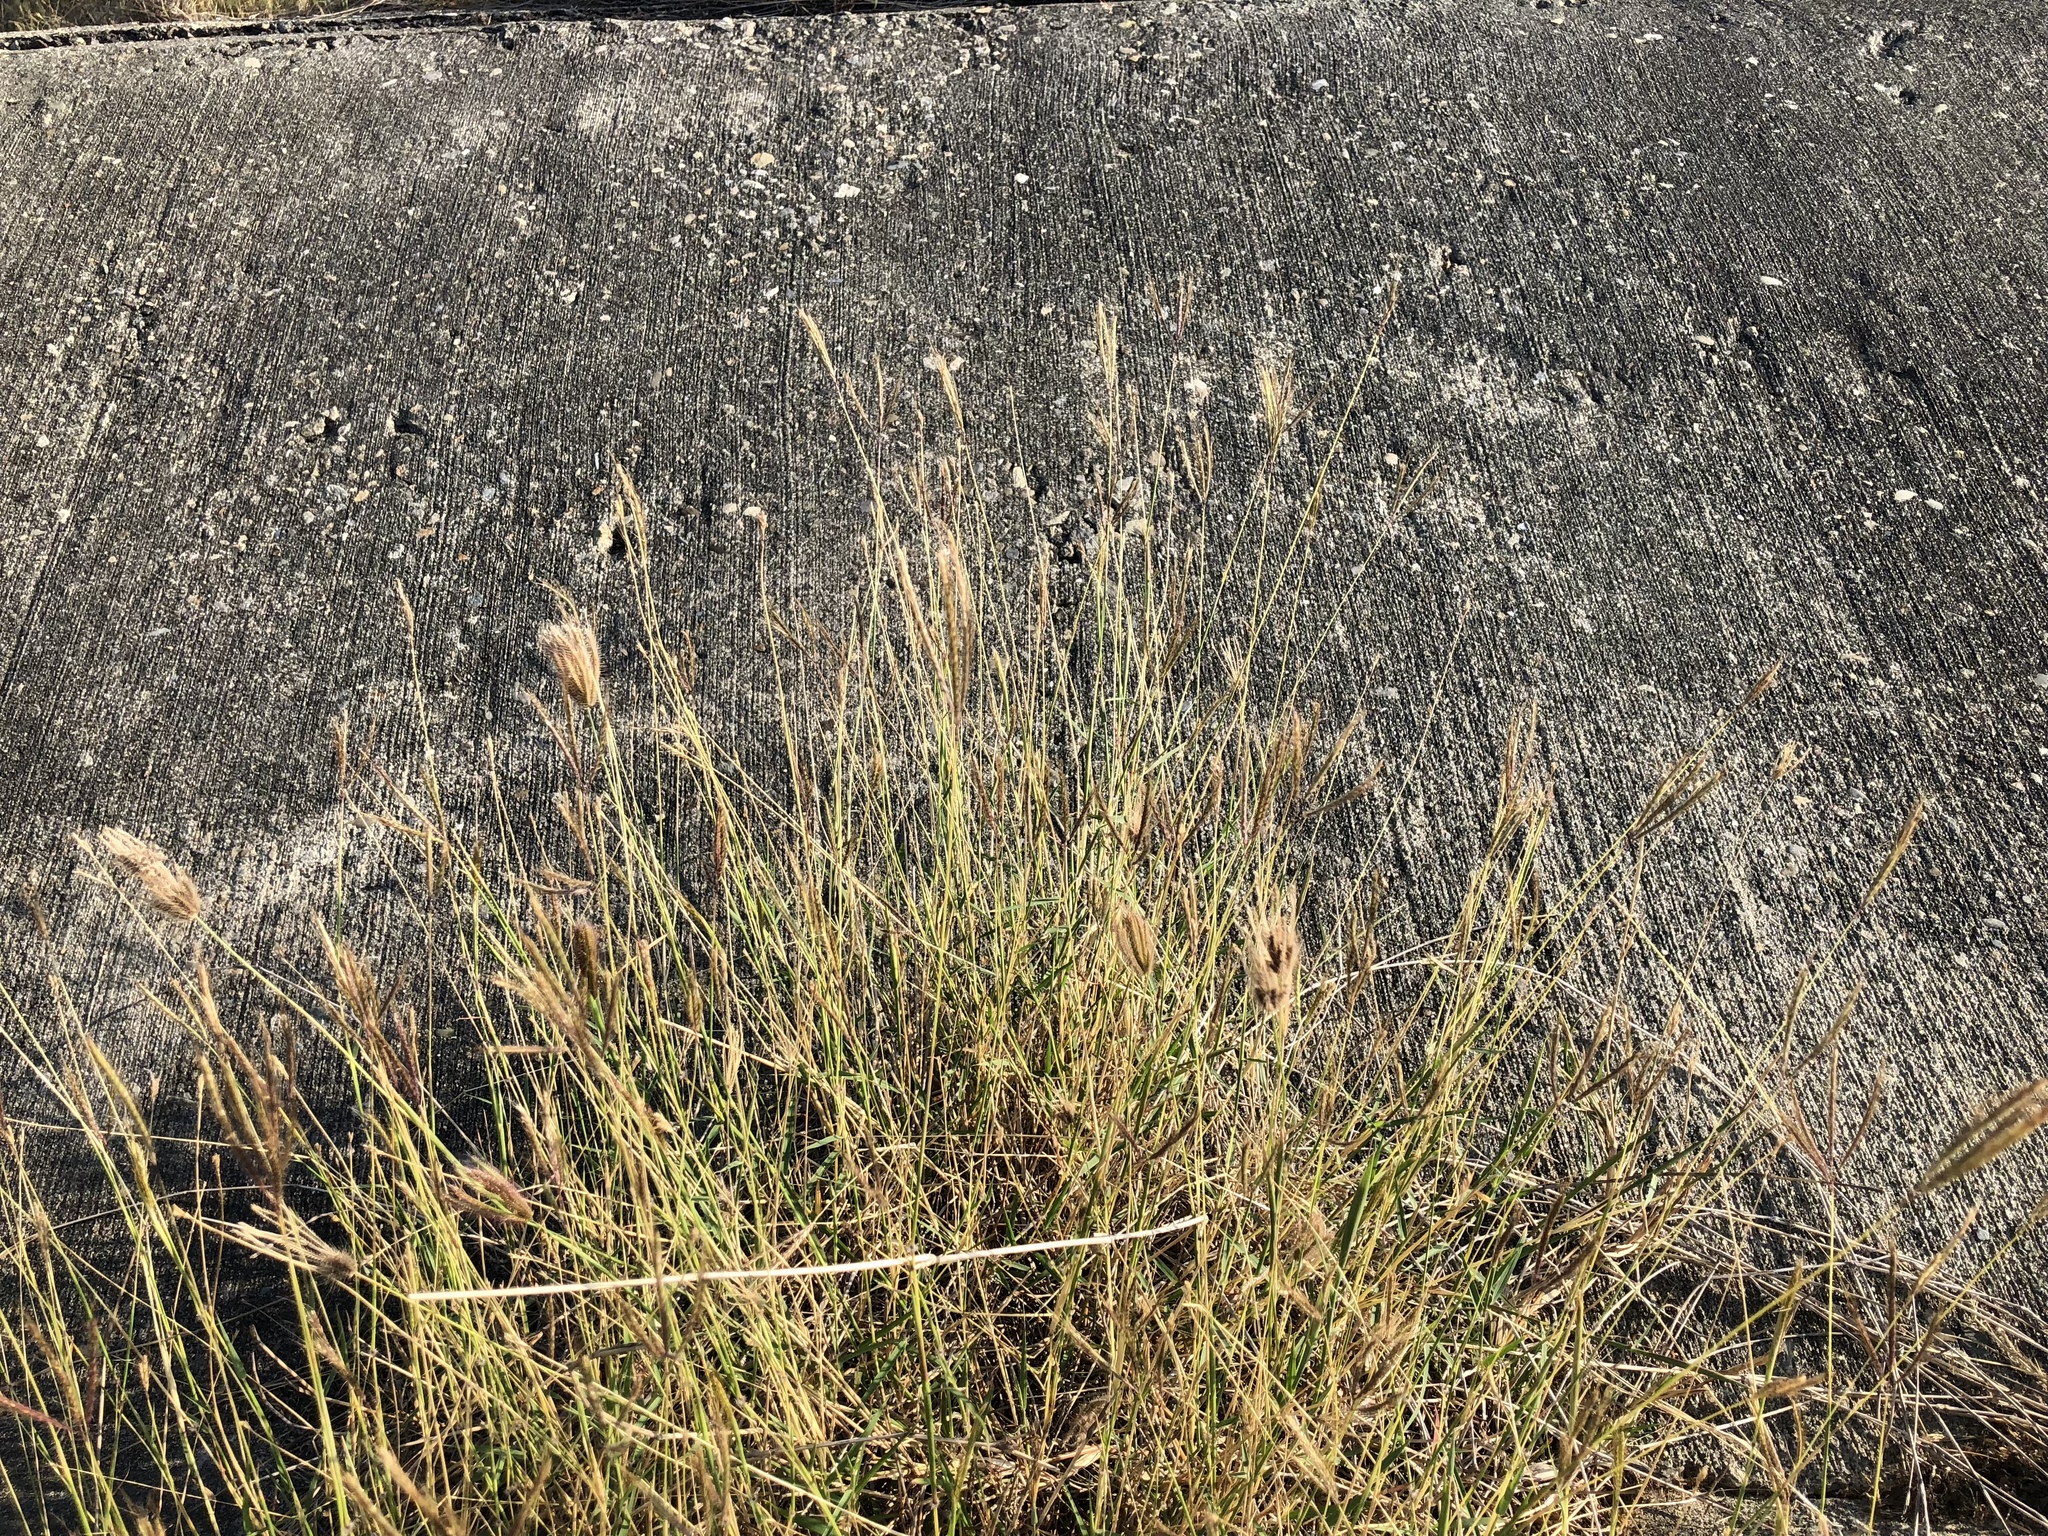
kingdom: Plantae
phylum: Tracheophyta
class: Liliopsida
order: Poales
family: Poaceae
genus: Dichanthium
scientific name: Dichanthium annulatum
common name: Kleberg's bluestem
